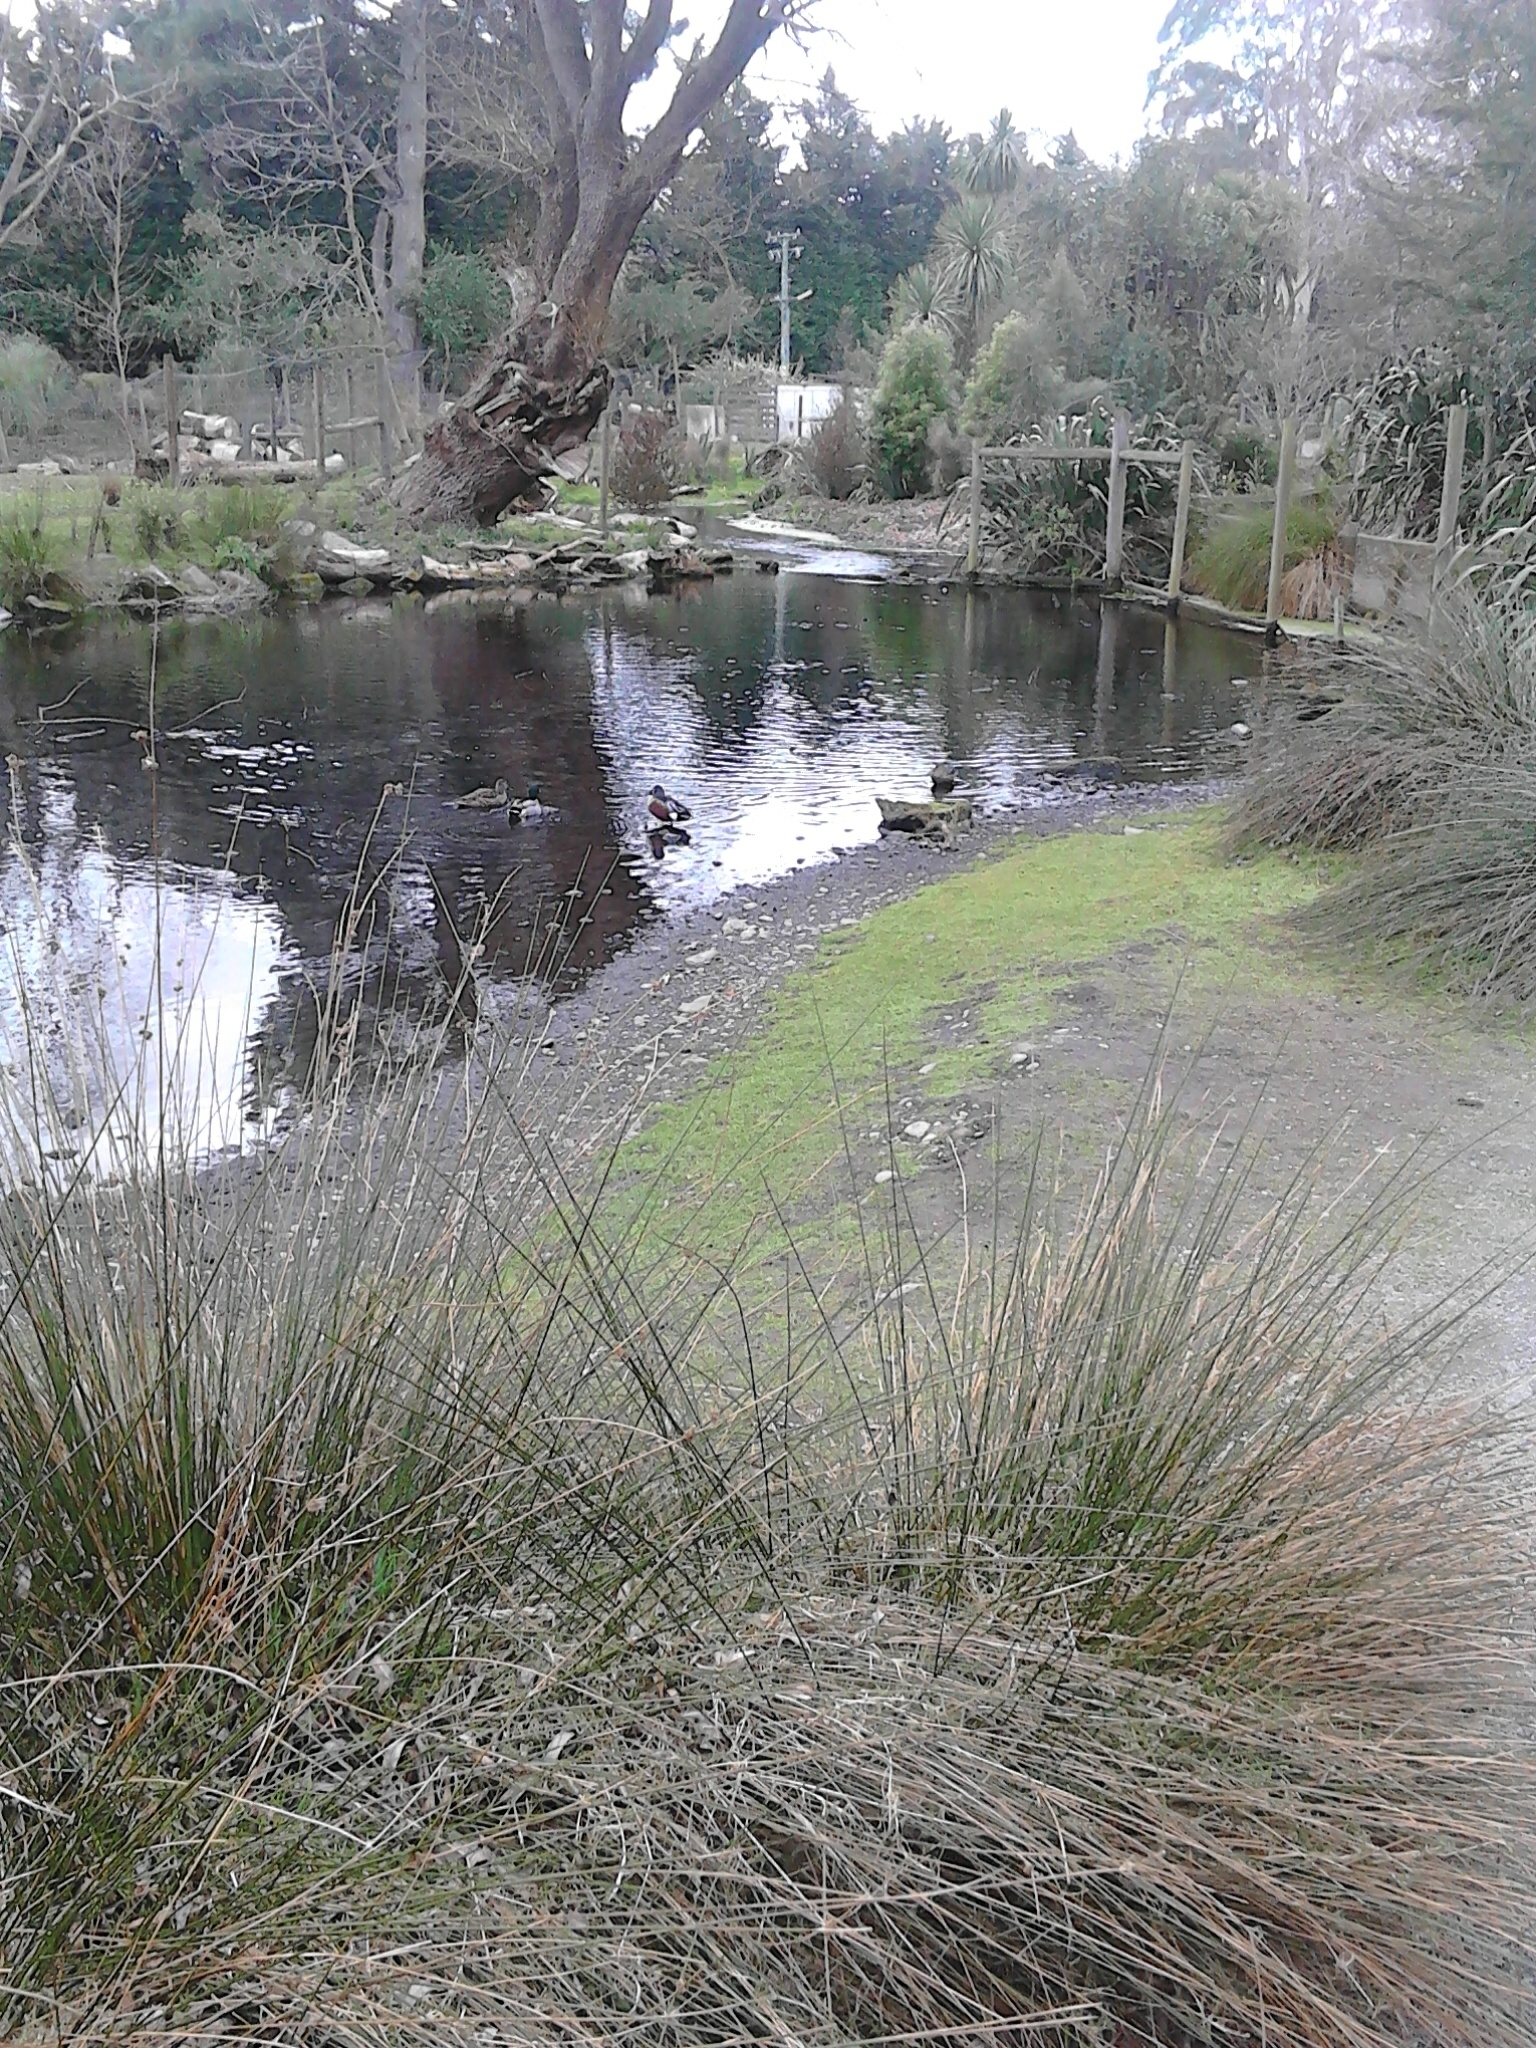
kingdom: Animalia
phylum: Chordata
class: Aves
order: Anseriformes
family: Anatidae
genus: Spatula
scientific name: Spatula rhynchotis
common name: Australian shoveler
